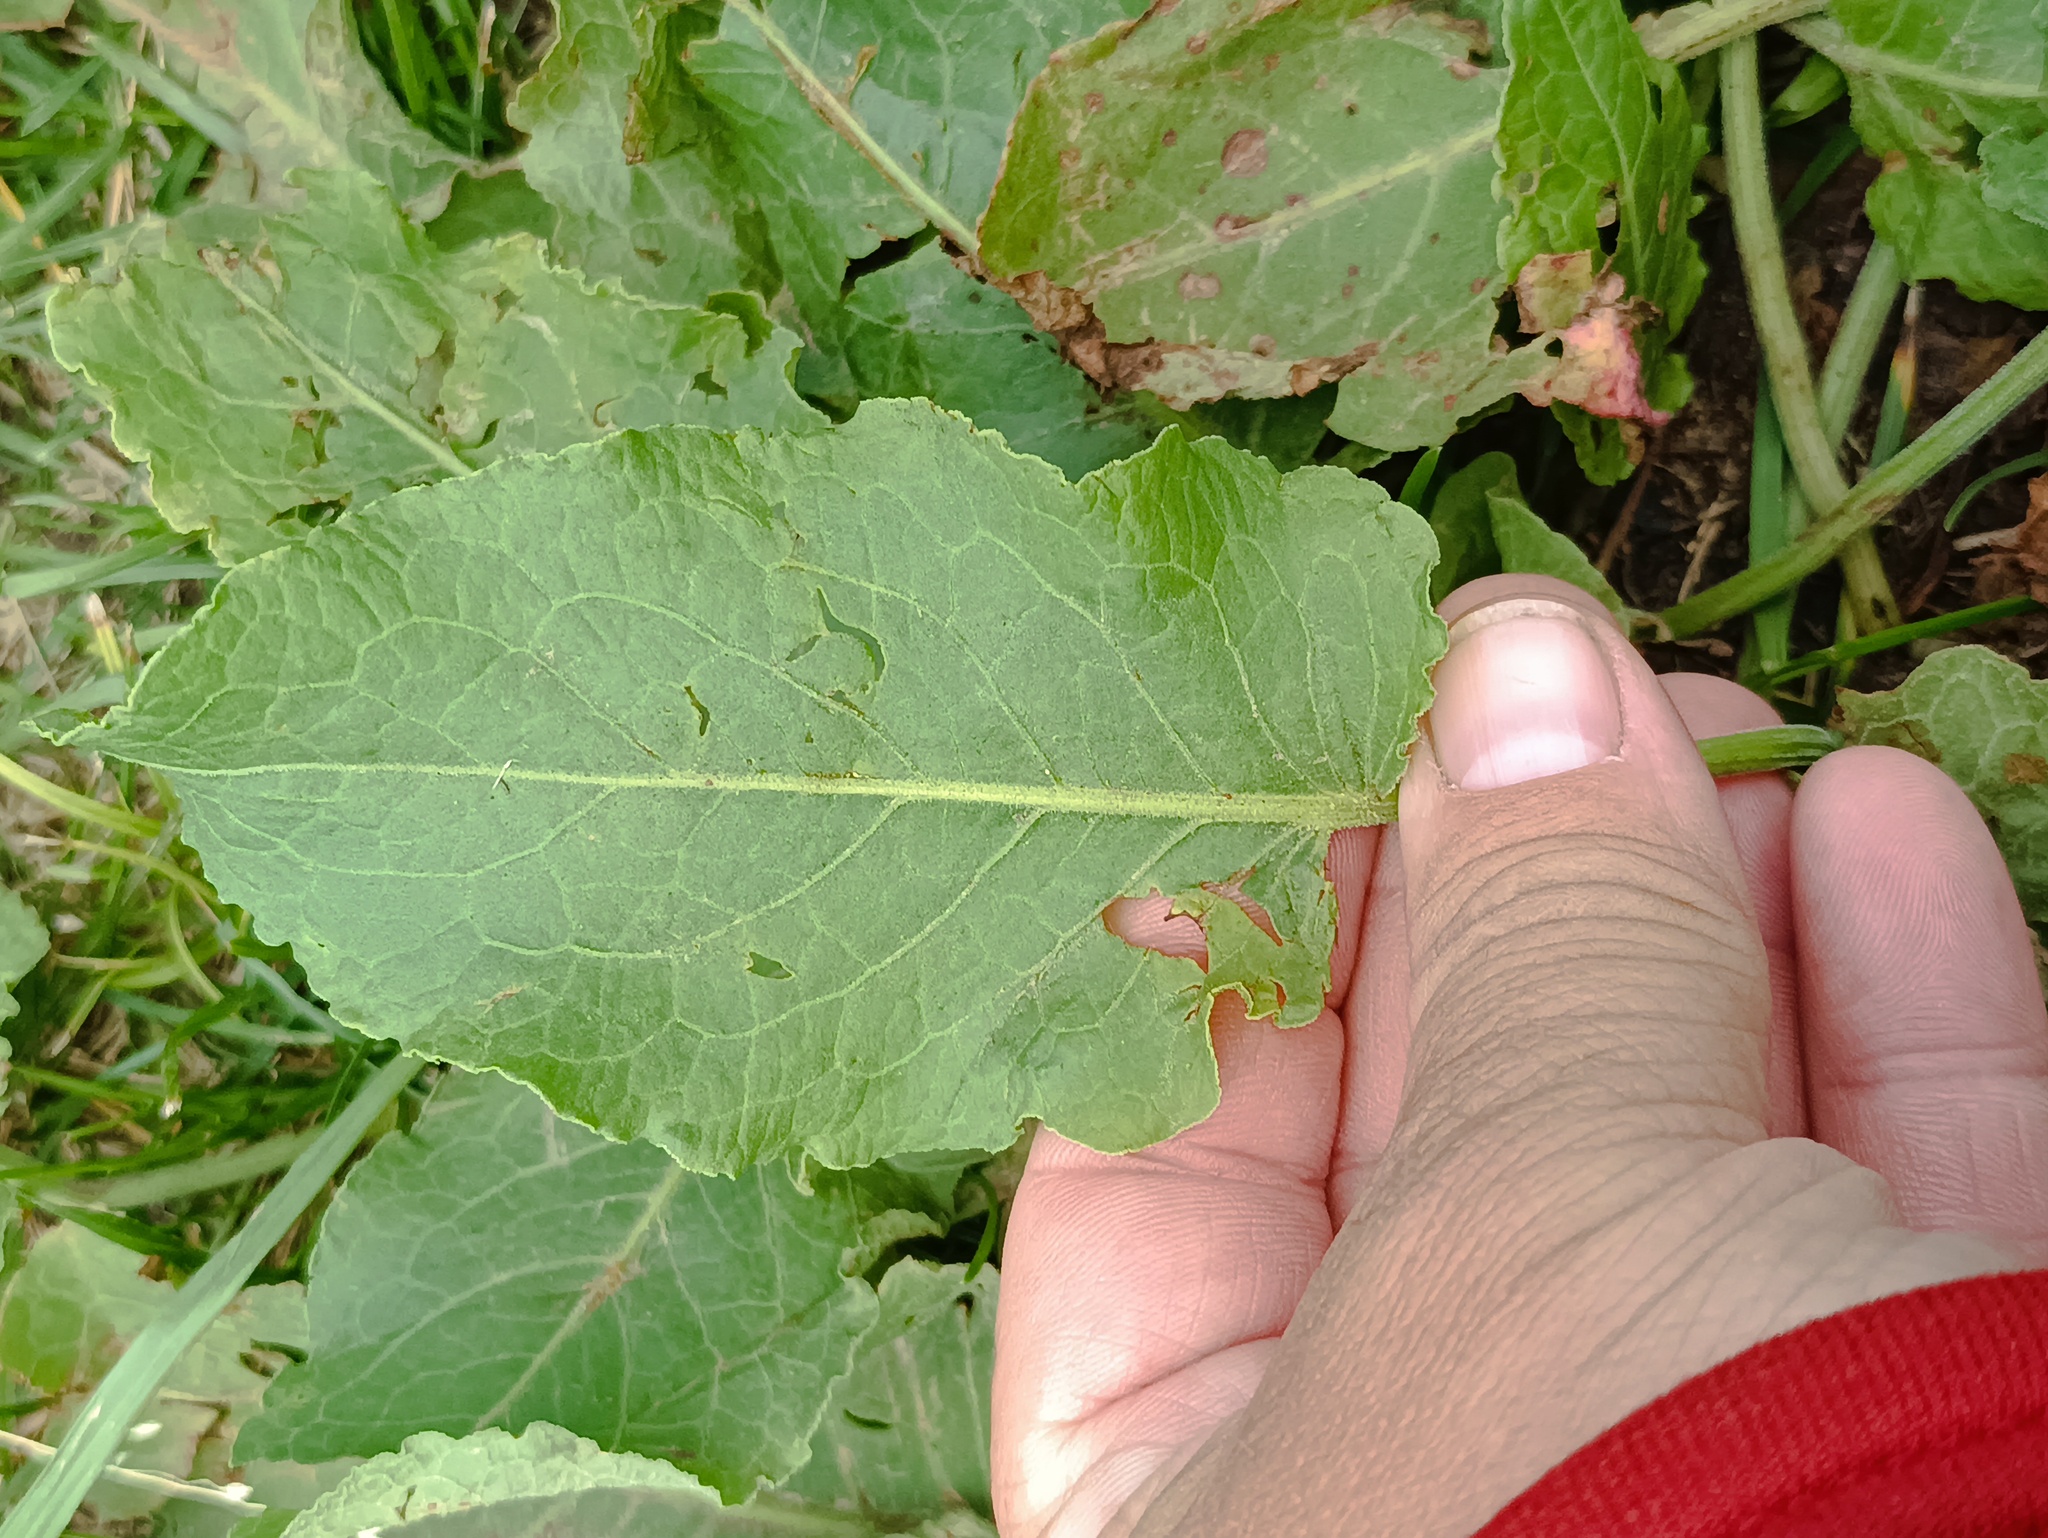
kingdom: Plantae
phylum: Tracheophyta
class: Magnoliopsida
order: Caryophyllales
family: Polygonaceae
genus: Rumex
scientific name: Rumex confertus
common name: Russian dock
